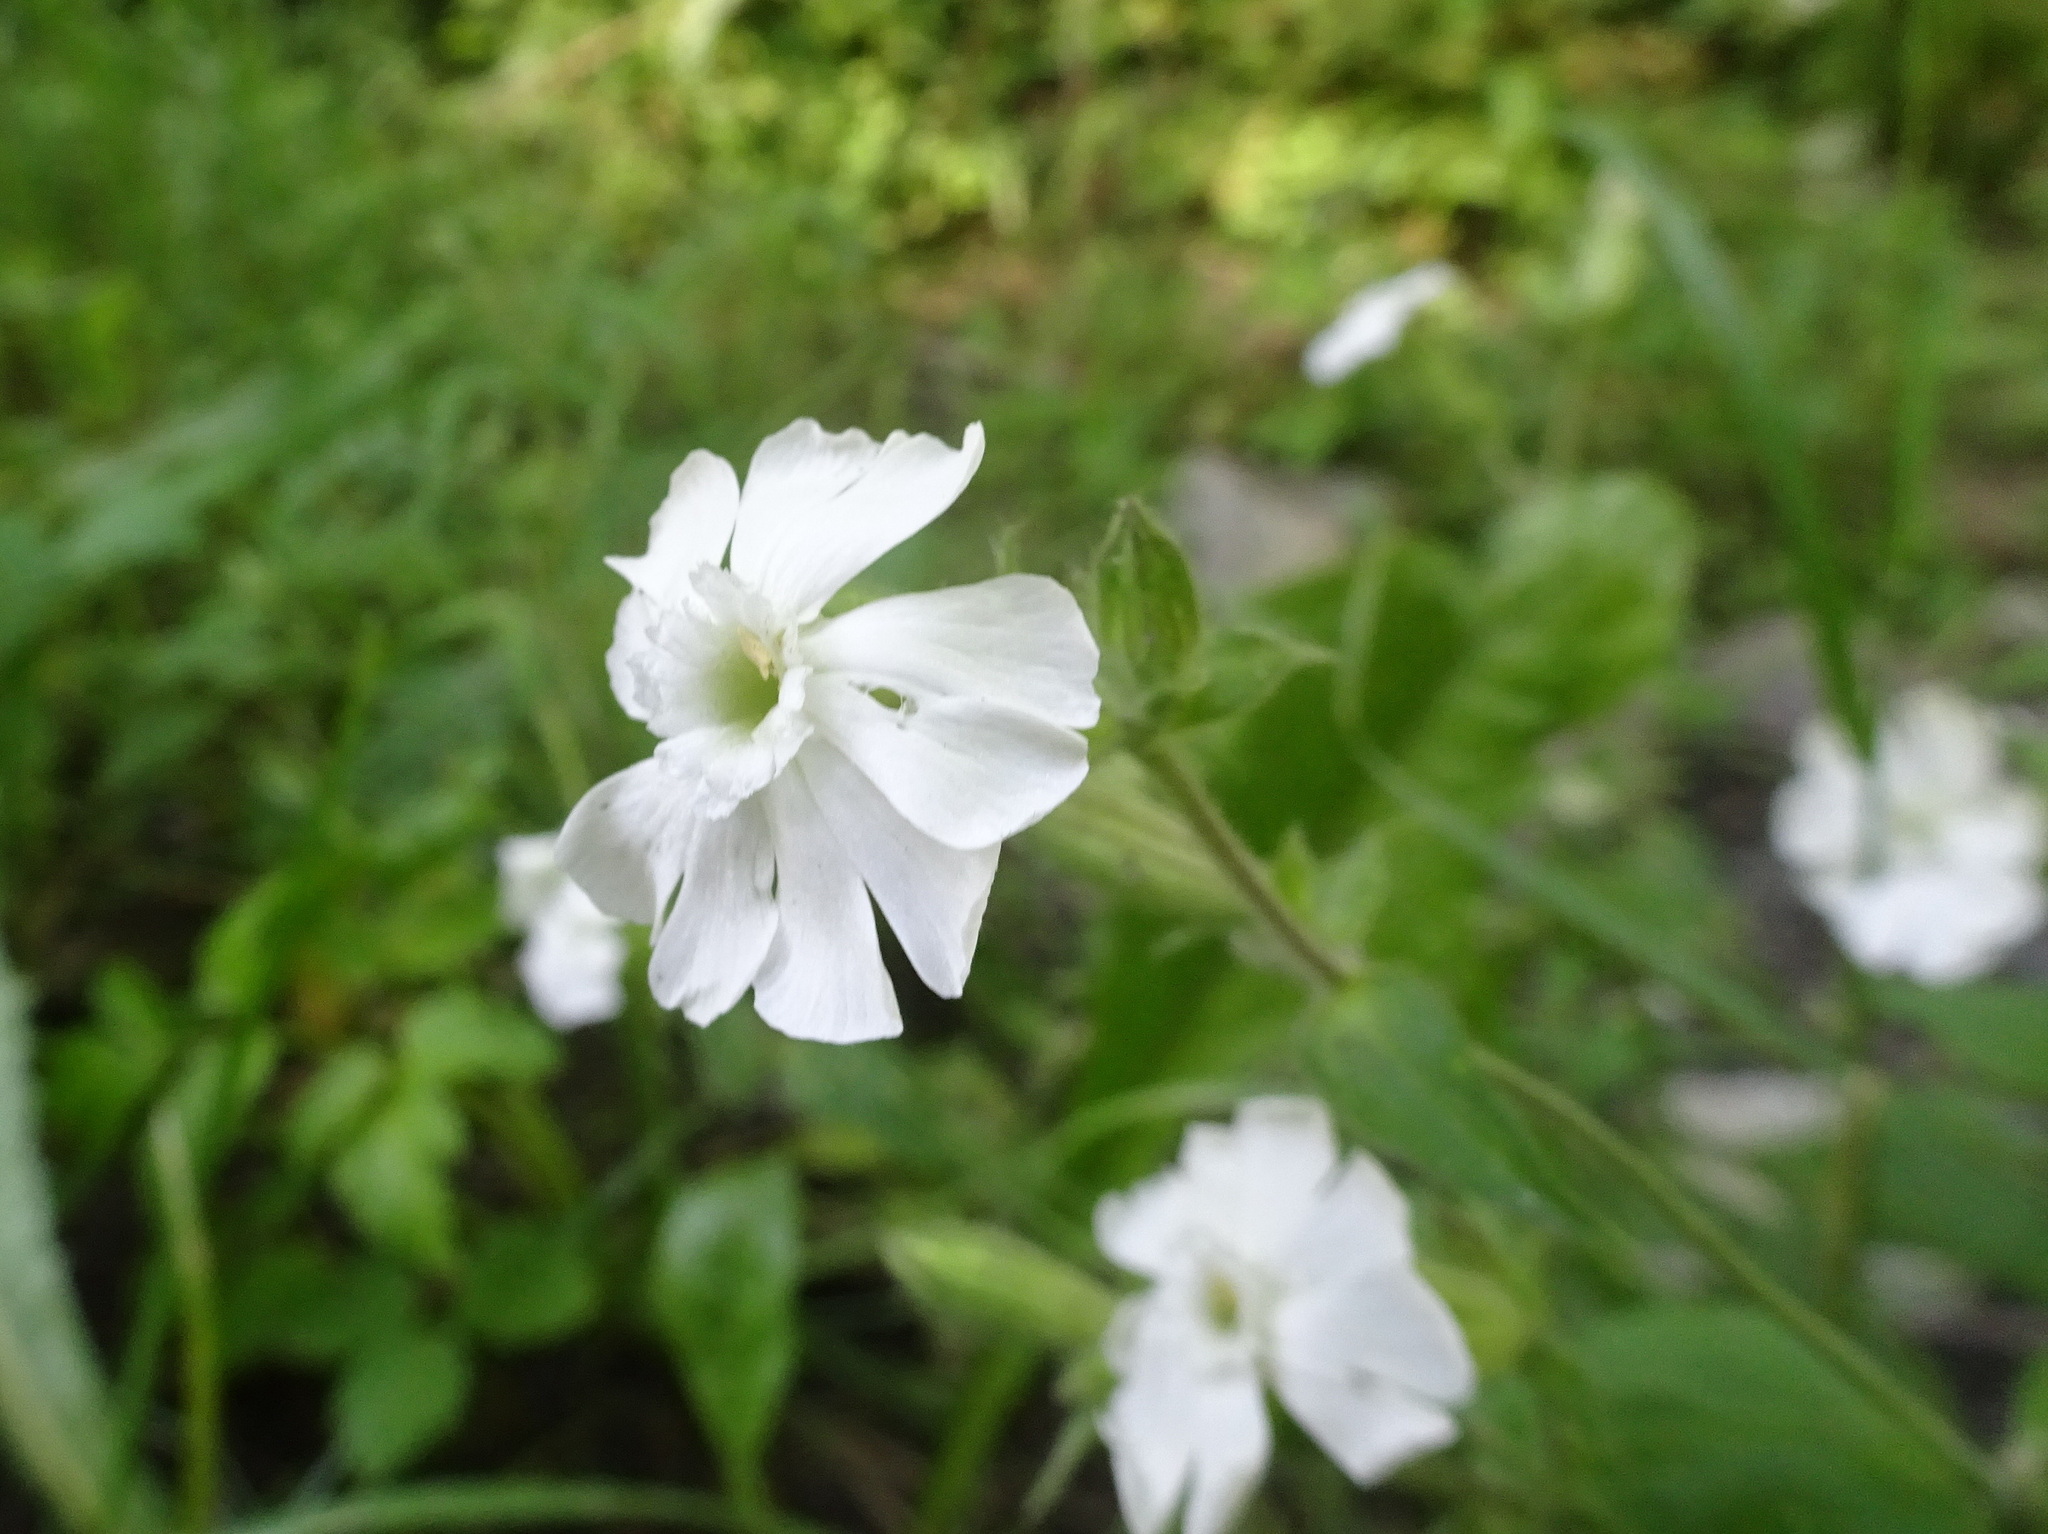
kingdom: Plantae
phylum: Tracheophyta
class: Magnoliopsida
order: Caryophyllales
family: Caryophyllaceae
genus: Silene
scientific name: Silene latifolia
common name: White campion
